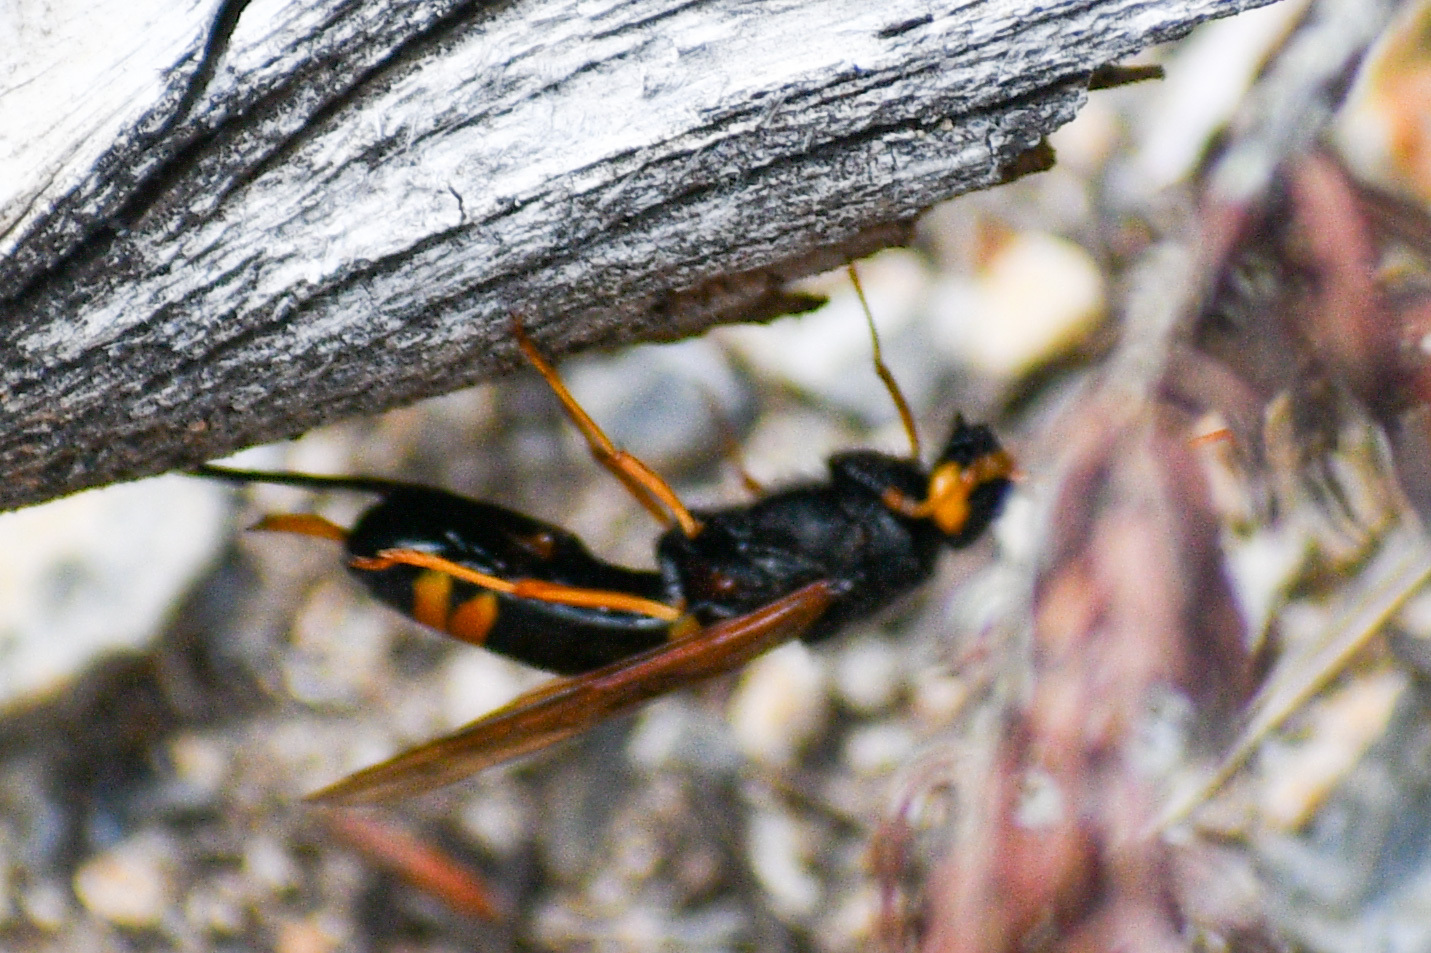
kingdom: Animalia
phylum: Arthropoda
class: Insecta
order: Hymenoptera
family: Siricidae
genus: Urocerus
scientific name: Urocerus flavicornis
